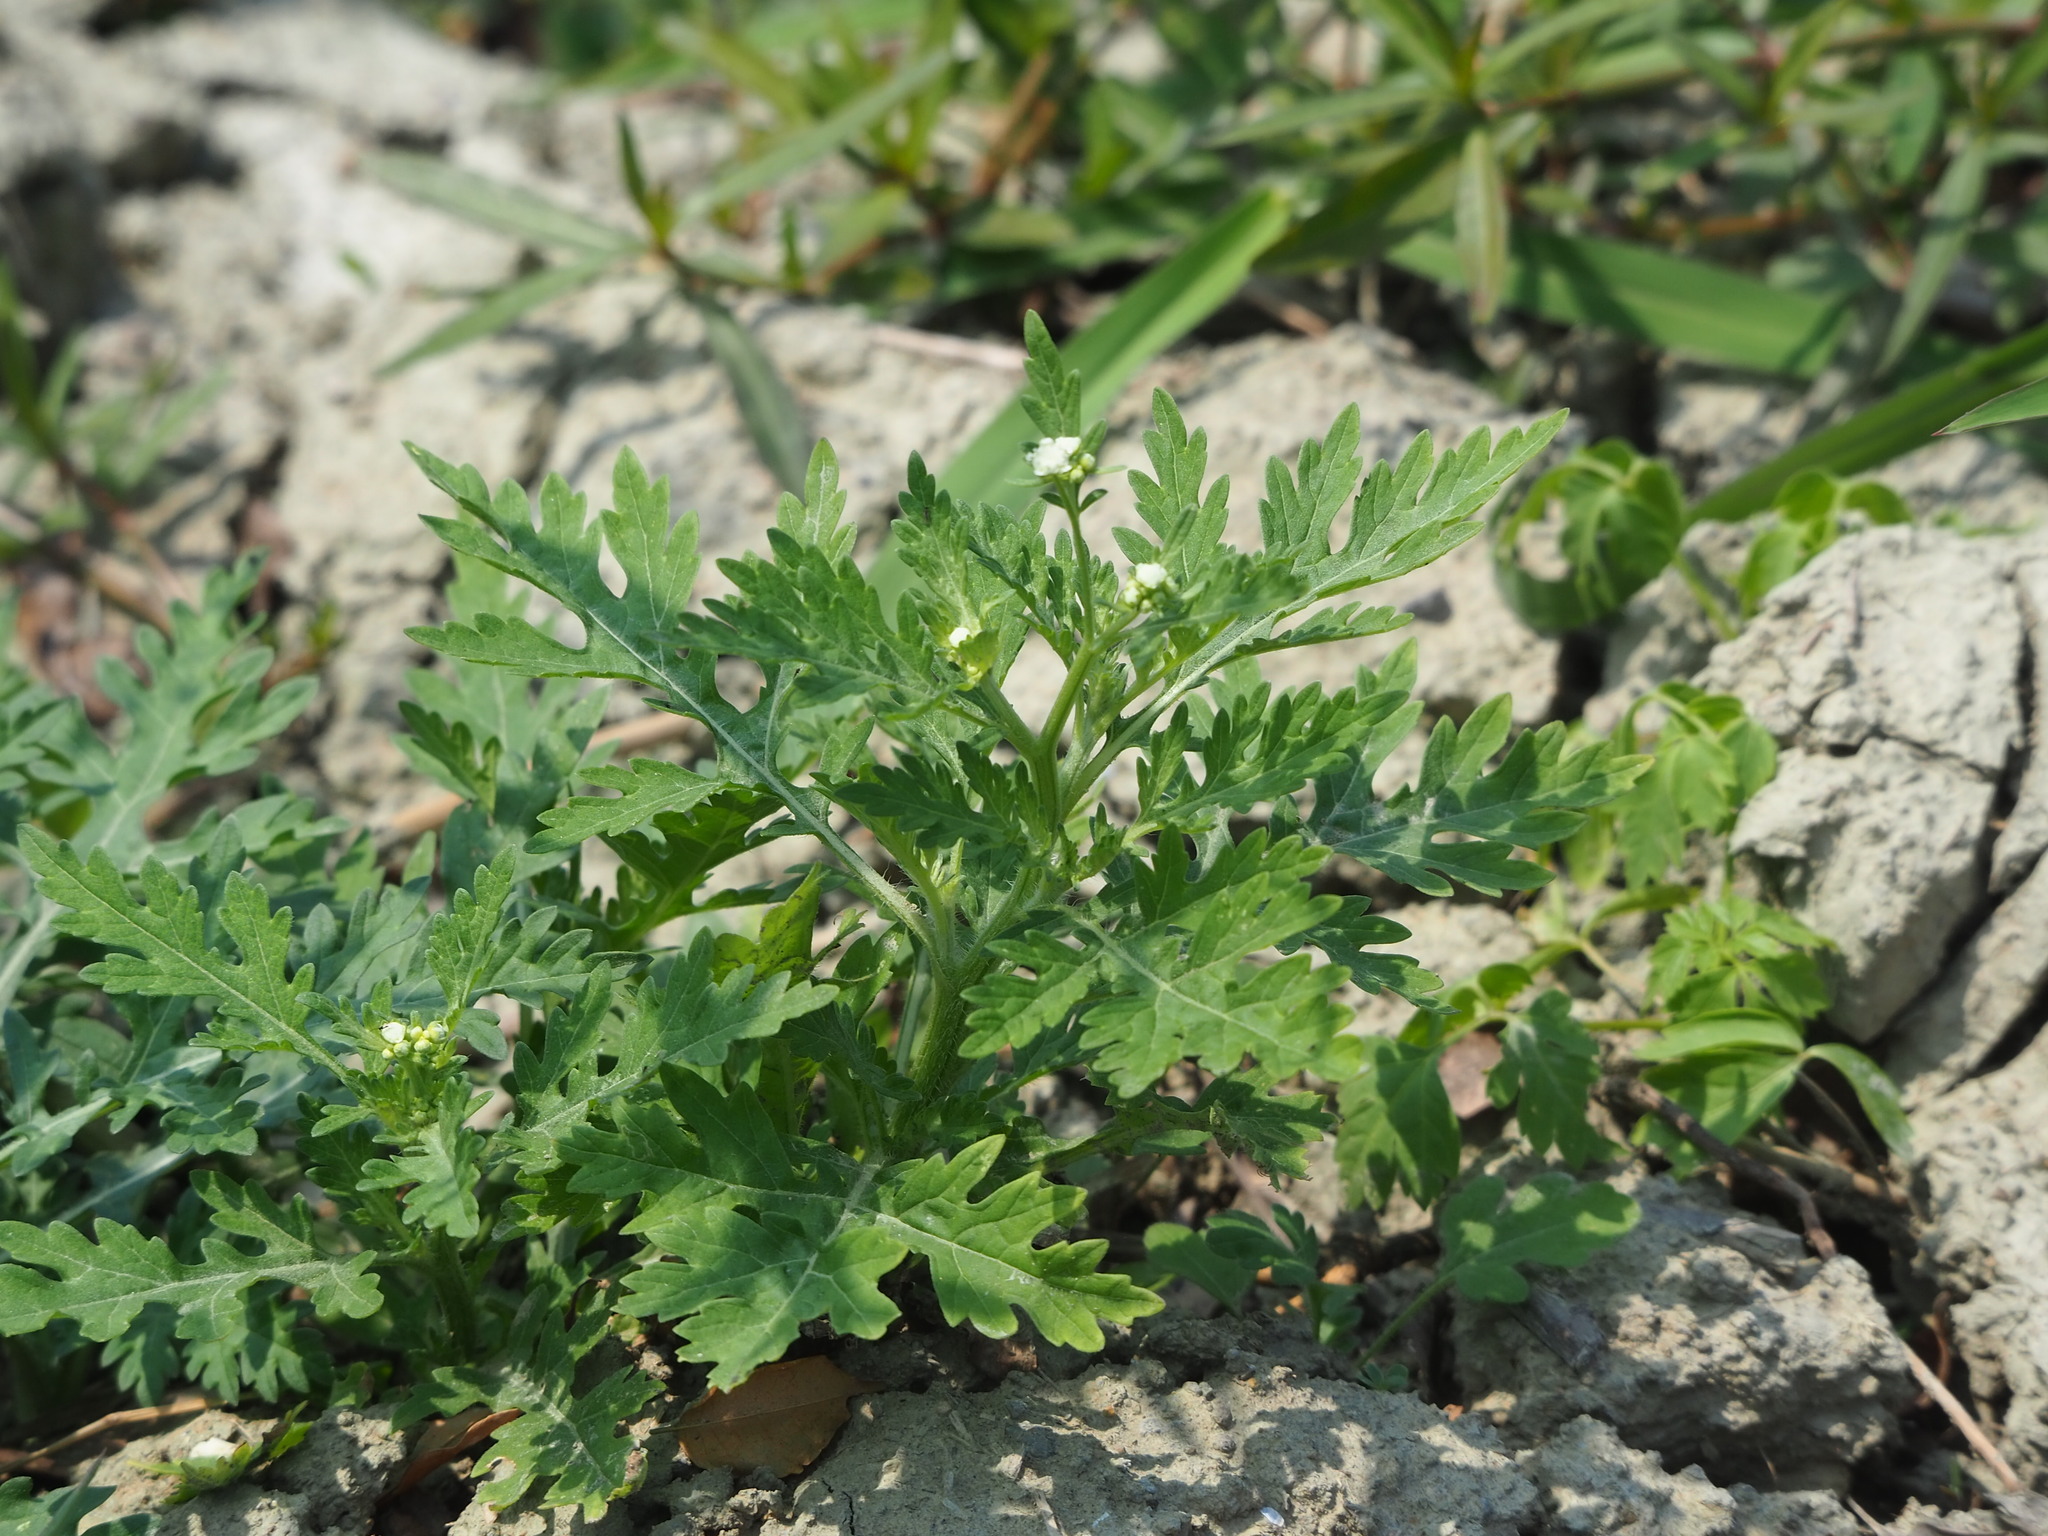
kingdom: Plantae
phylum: Tracheophyta
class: Magnoliopsida
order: Asterales
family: Asteraceae
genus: Parthenium
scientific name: Parthenium hysterophorus
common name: Santa maria feverfew
